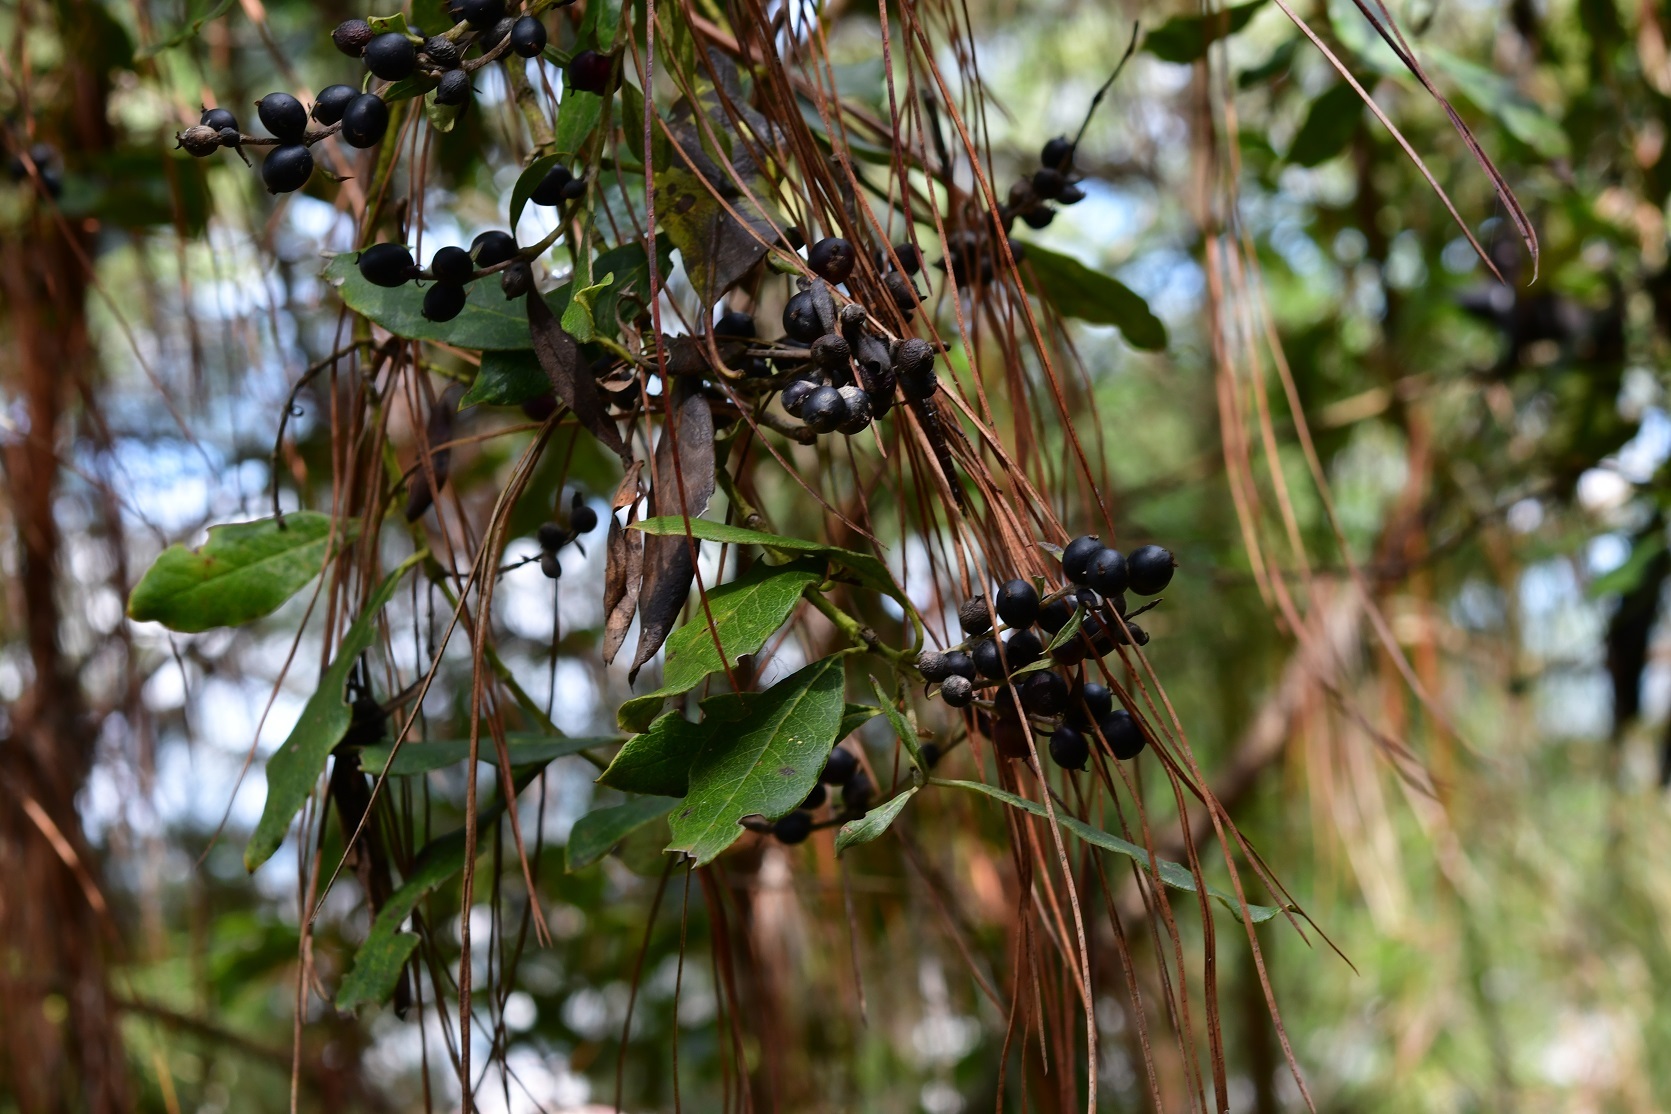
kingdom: Plantae
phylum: Tracheophyta
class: Magnoliopsida
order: Garryales
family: Garryaceae
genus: Garrya
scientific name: Garrya laurifolia
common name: Cuachichic
